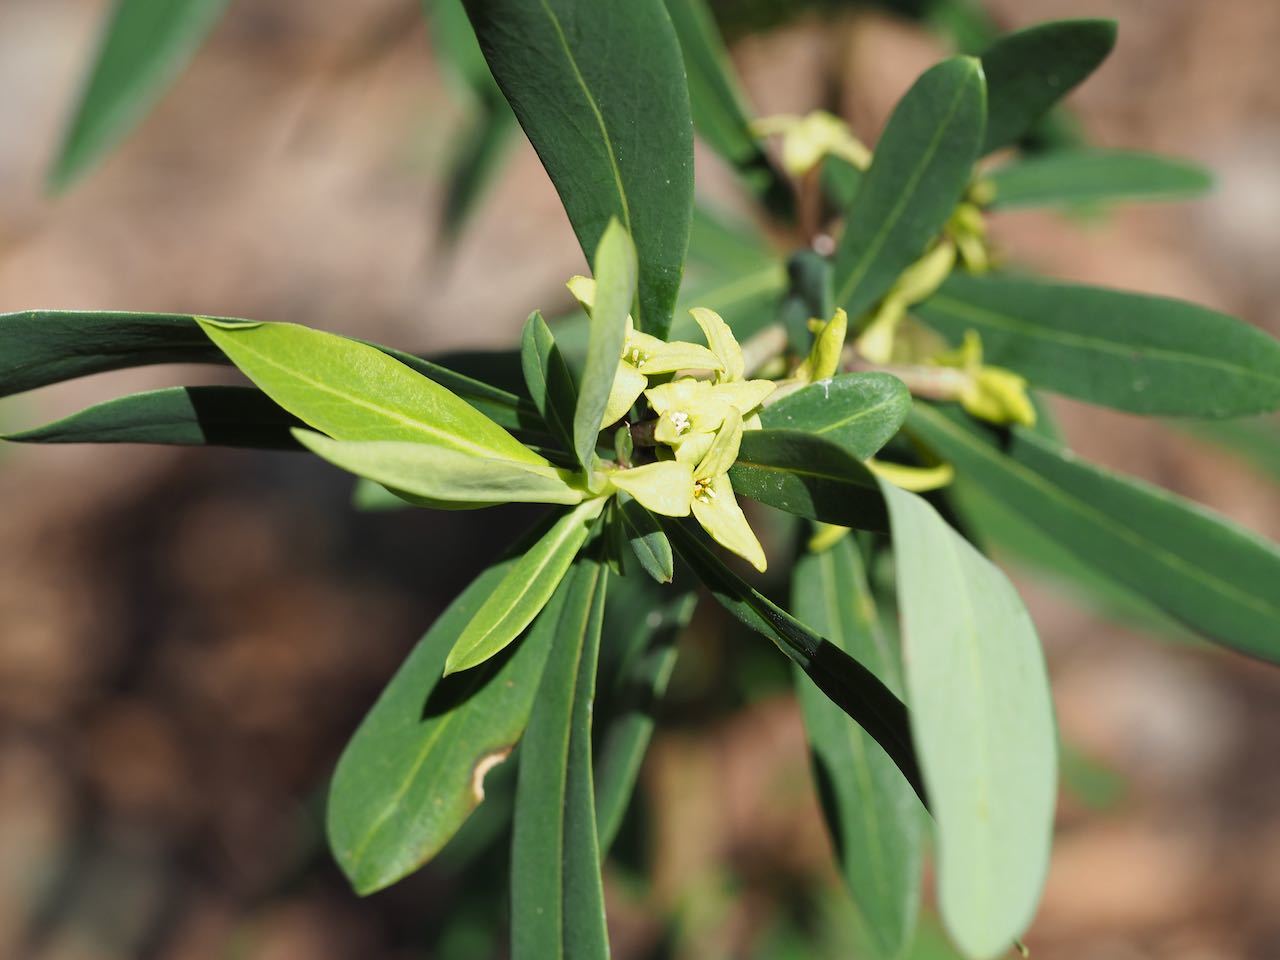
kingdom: Plantae
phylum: Tracheophyta
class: Magnoliopsida
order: Malvales
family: Thymelaeaceae
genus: Daphne
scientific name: Daphne pseudomezereum
